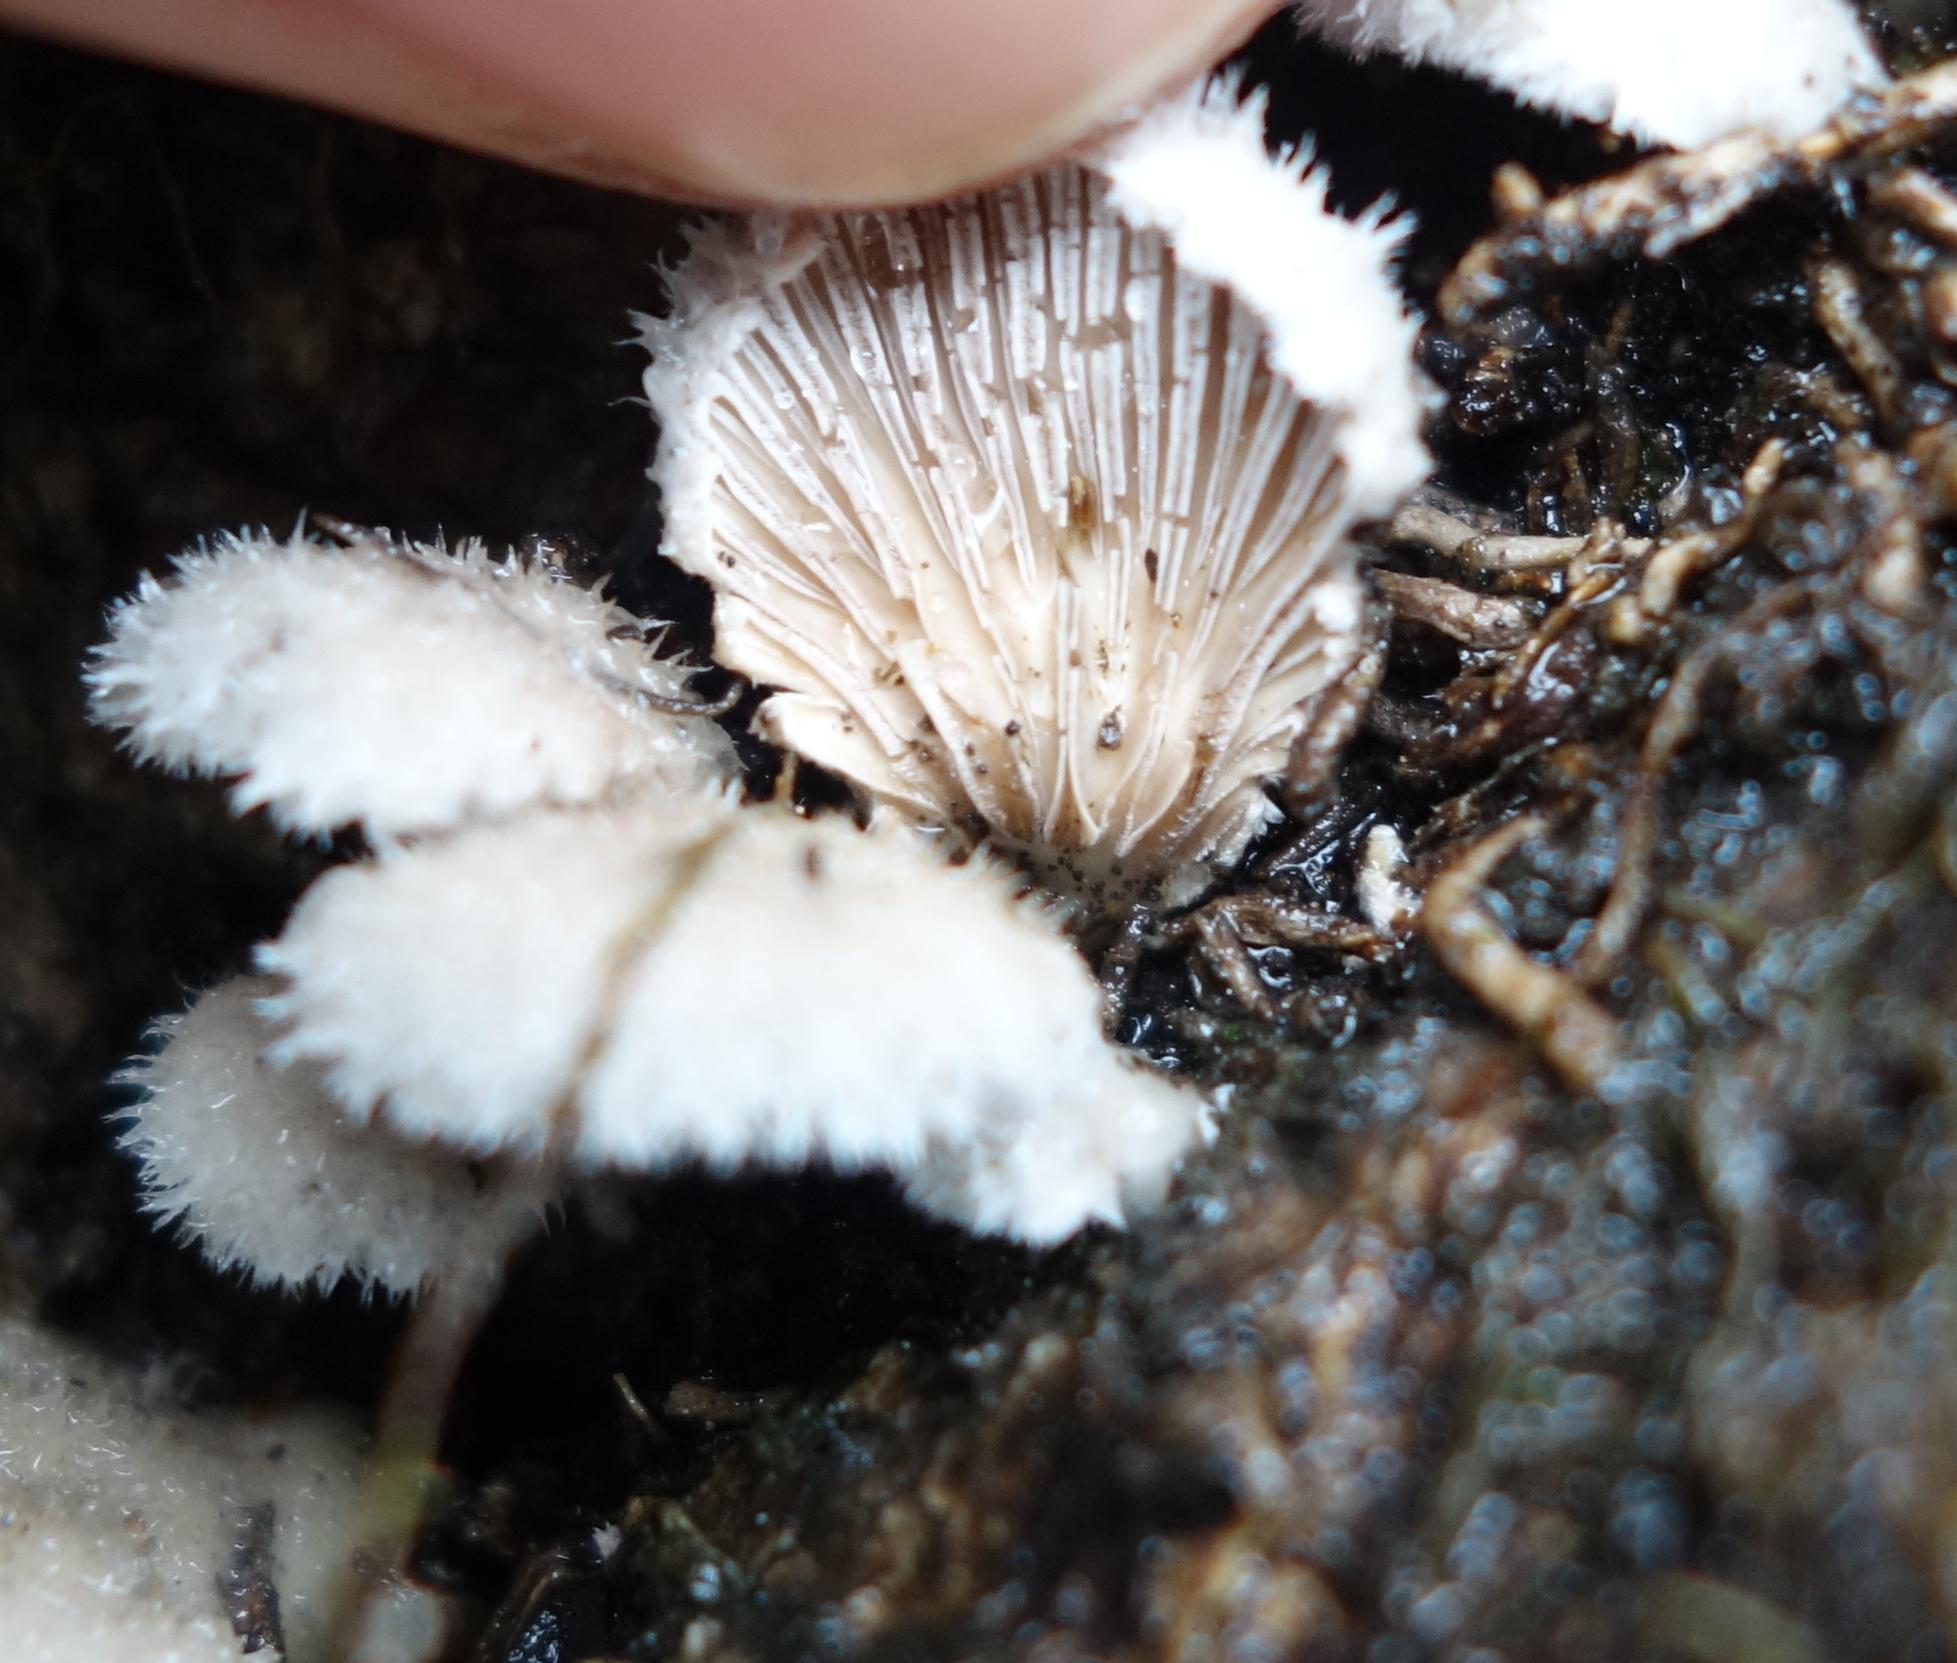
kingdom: Fungi
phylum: Basidiomycota
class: Agaricomycetes
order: Agaricales
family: Schizophyllaceae
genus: Schizophyllum
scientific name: Schizophyllum commune
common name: Common porecrust
